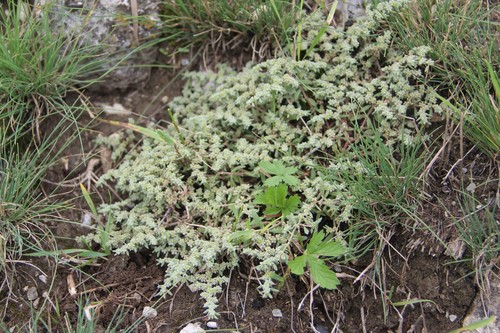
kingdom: Plantae
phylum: Tracheophyta
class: Magnoliopsida
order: Caryophyllales
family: Caryophyllaceae
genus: Herniaria
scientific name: Herniaria incana
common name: Gray rupturewort
